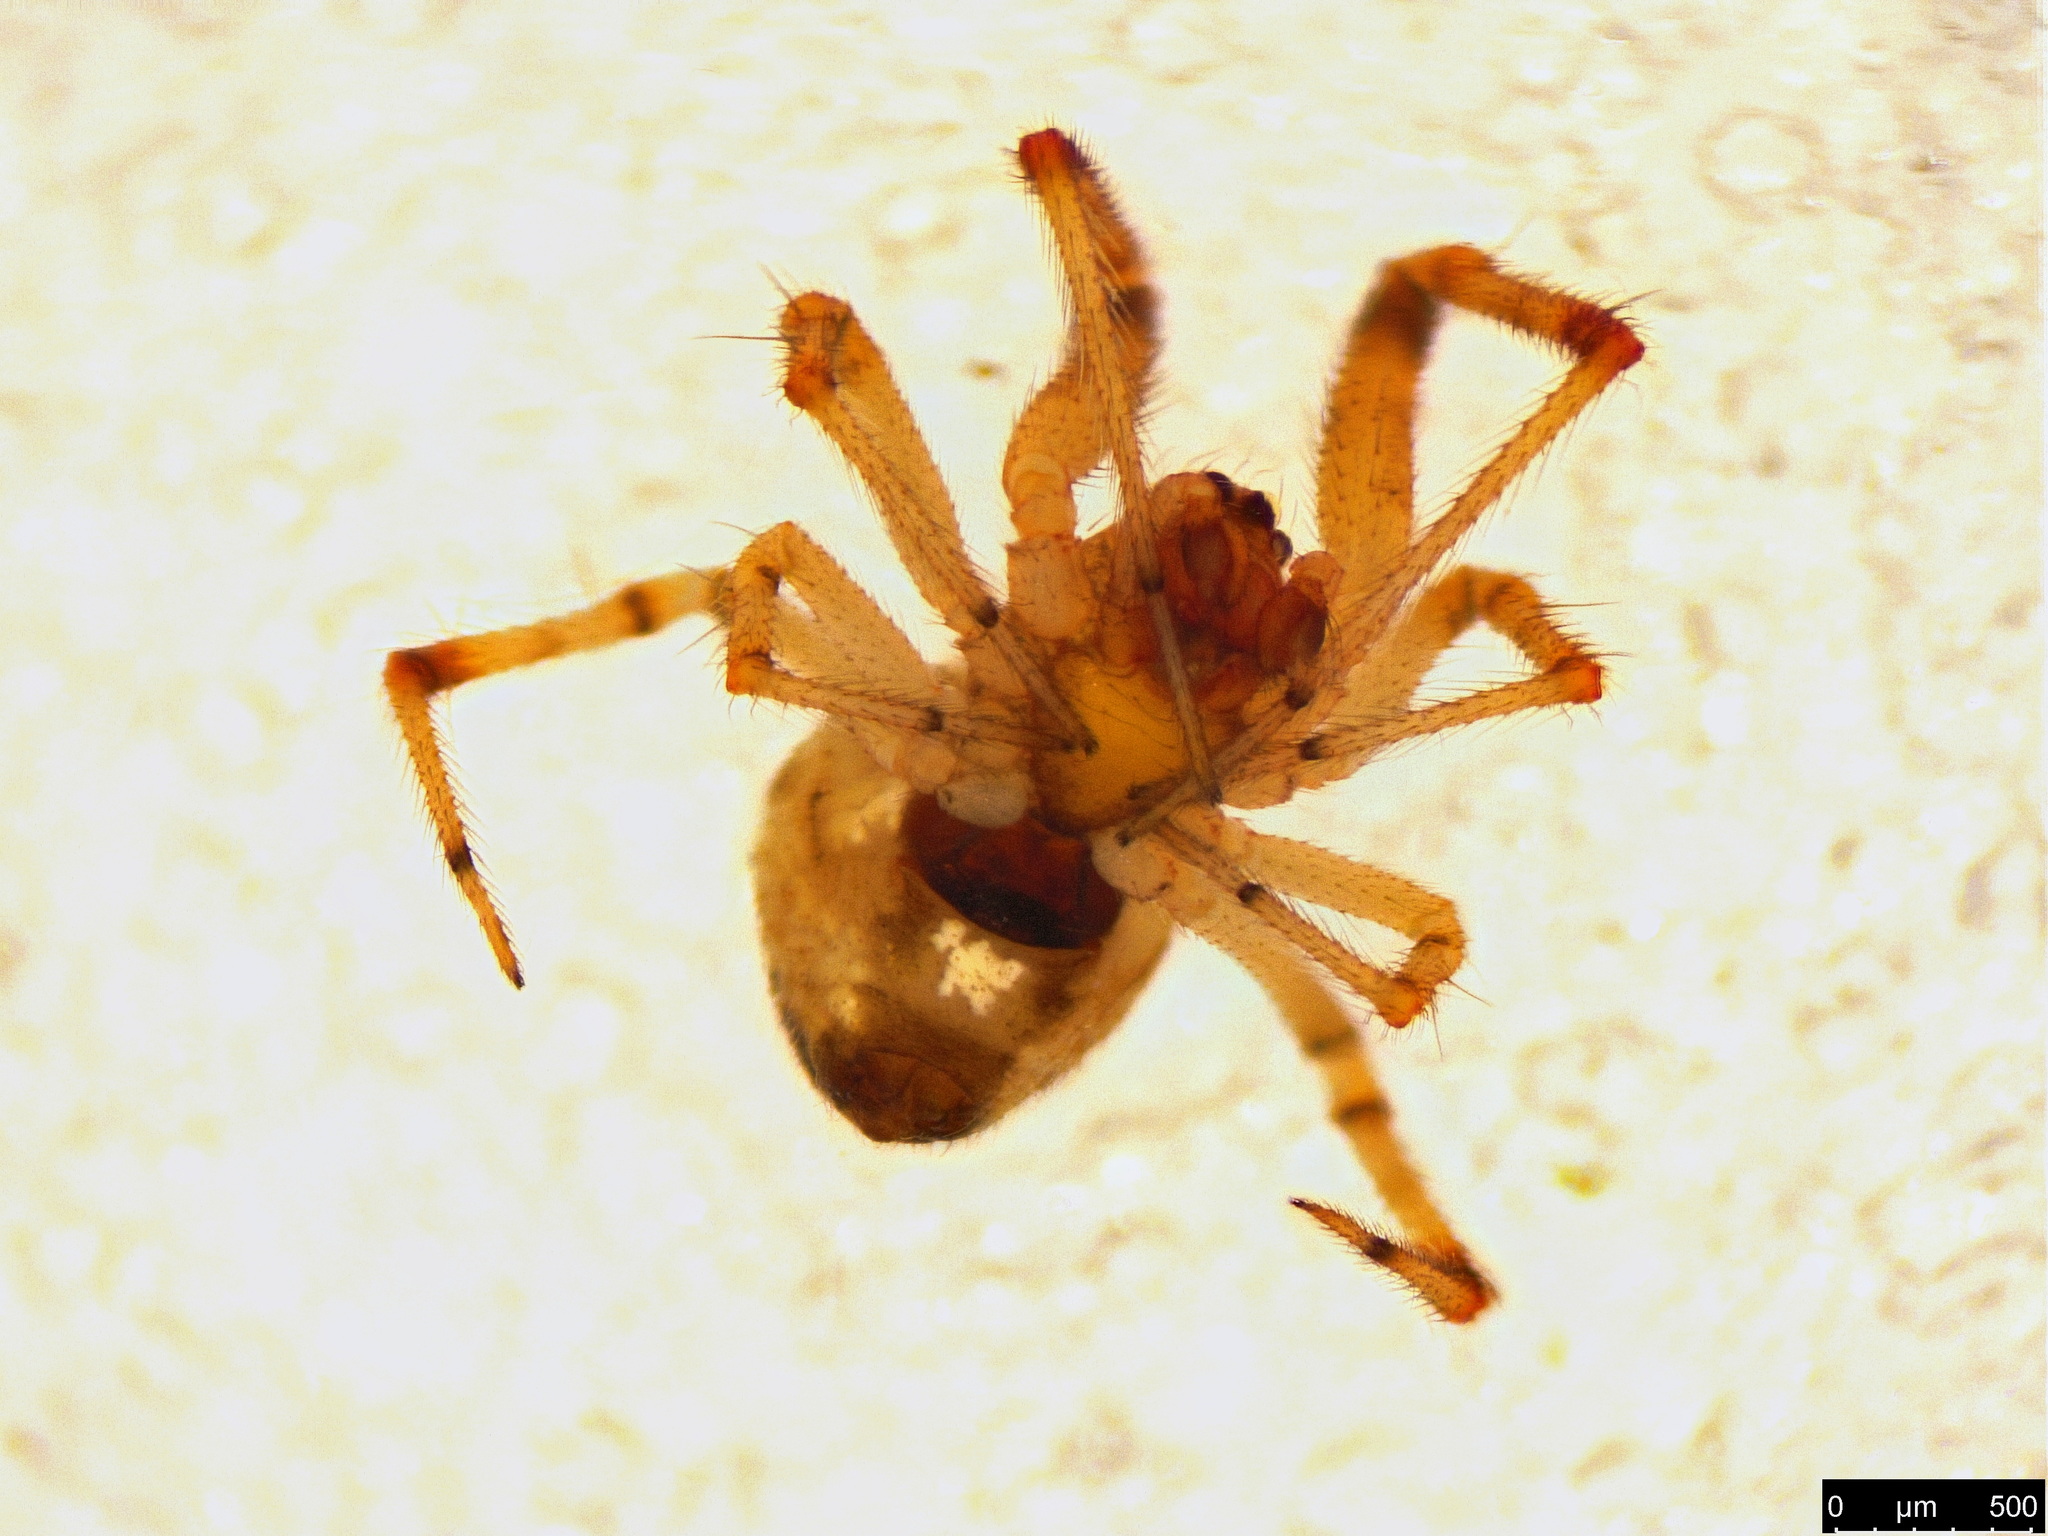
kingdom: Animalia
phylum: Arthropoda
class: Arachnida
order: Araneae
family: Theridiidae
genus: Cryptachaea
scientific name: Cryptachaea veruculata
